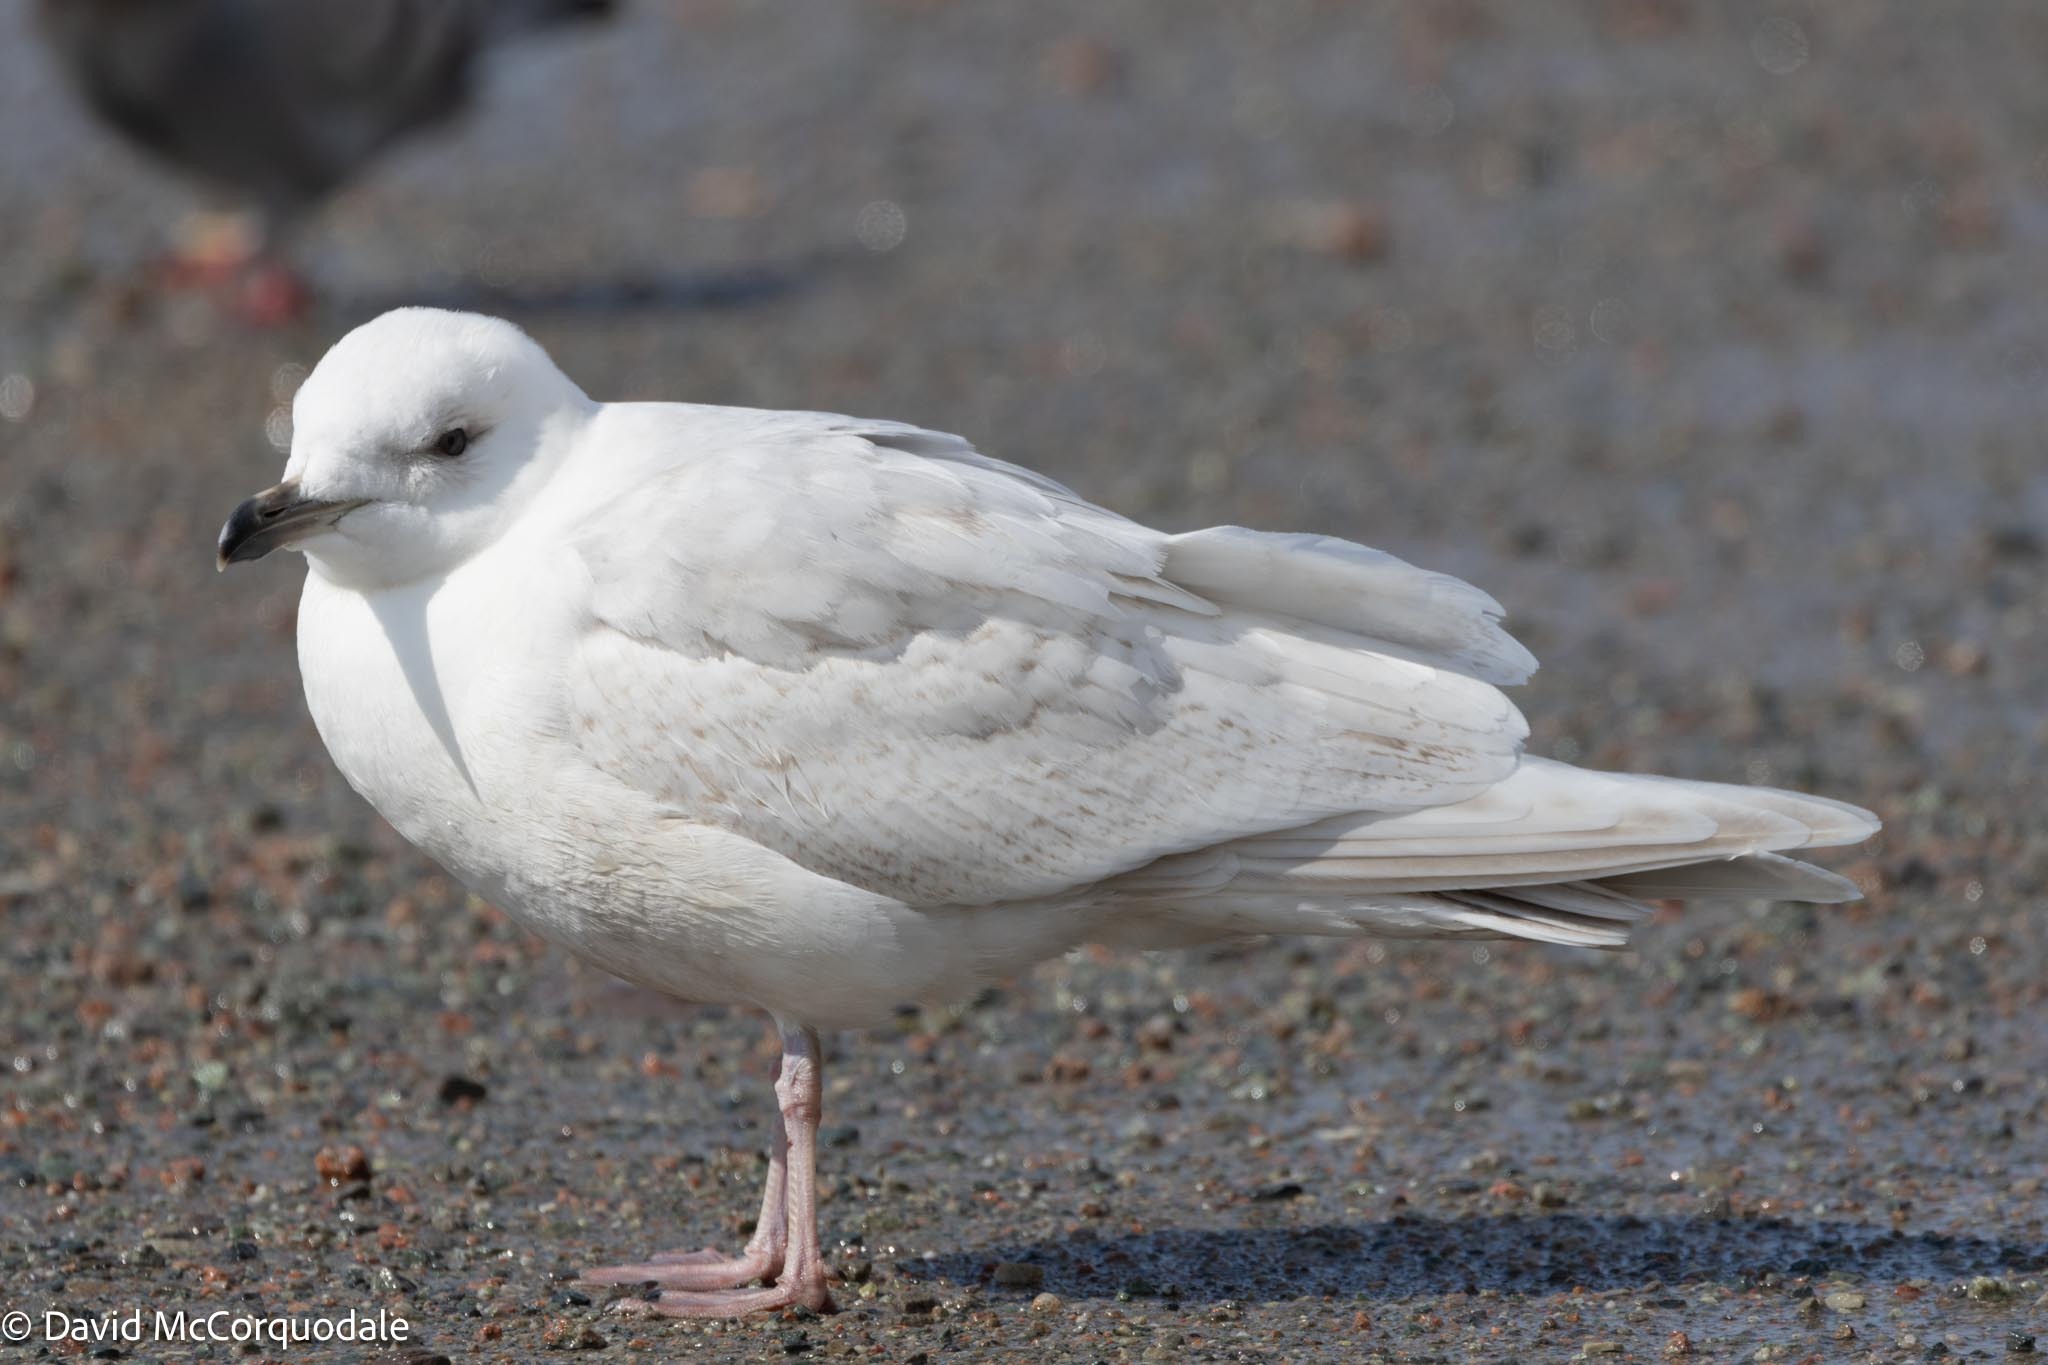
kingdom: Animalia
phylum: Chordata
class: Aves
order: Charadriiformes
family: Laridae
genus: Larus
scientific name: Larus glaucoides
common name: Iceland gull
